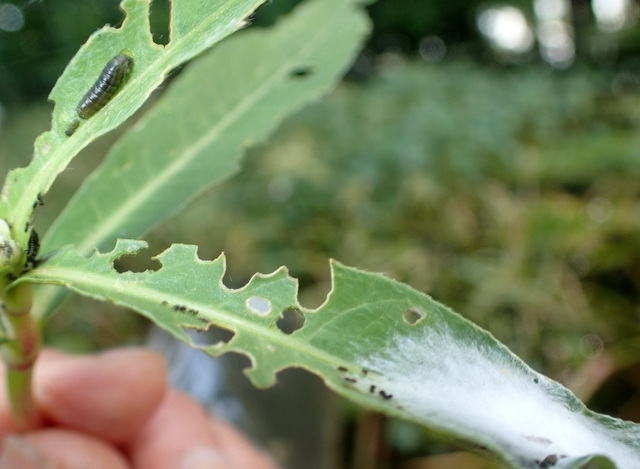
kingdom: Animalia
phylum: Arthropoda
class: Insecta
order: Coleoptera
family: Chrysomelidae
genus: Agasicles
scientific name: Agasicles hygrophila
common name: Alligatorweed flea beetle
